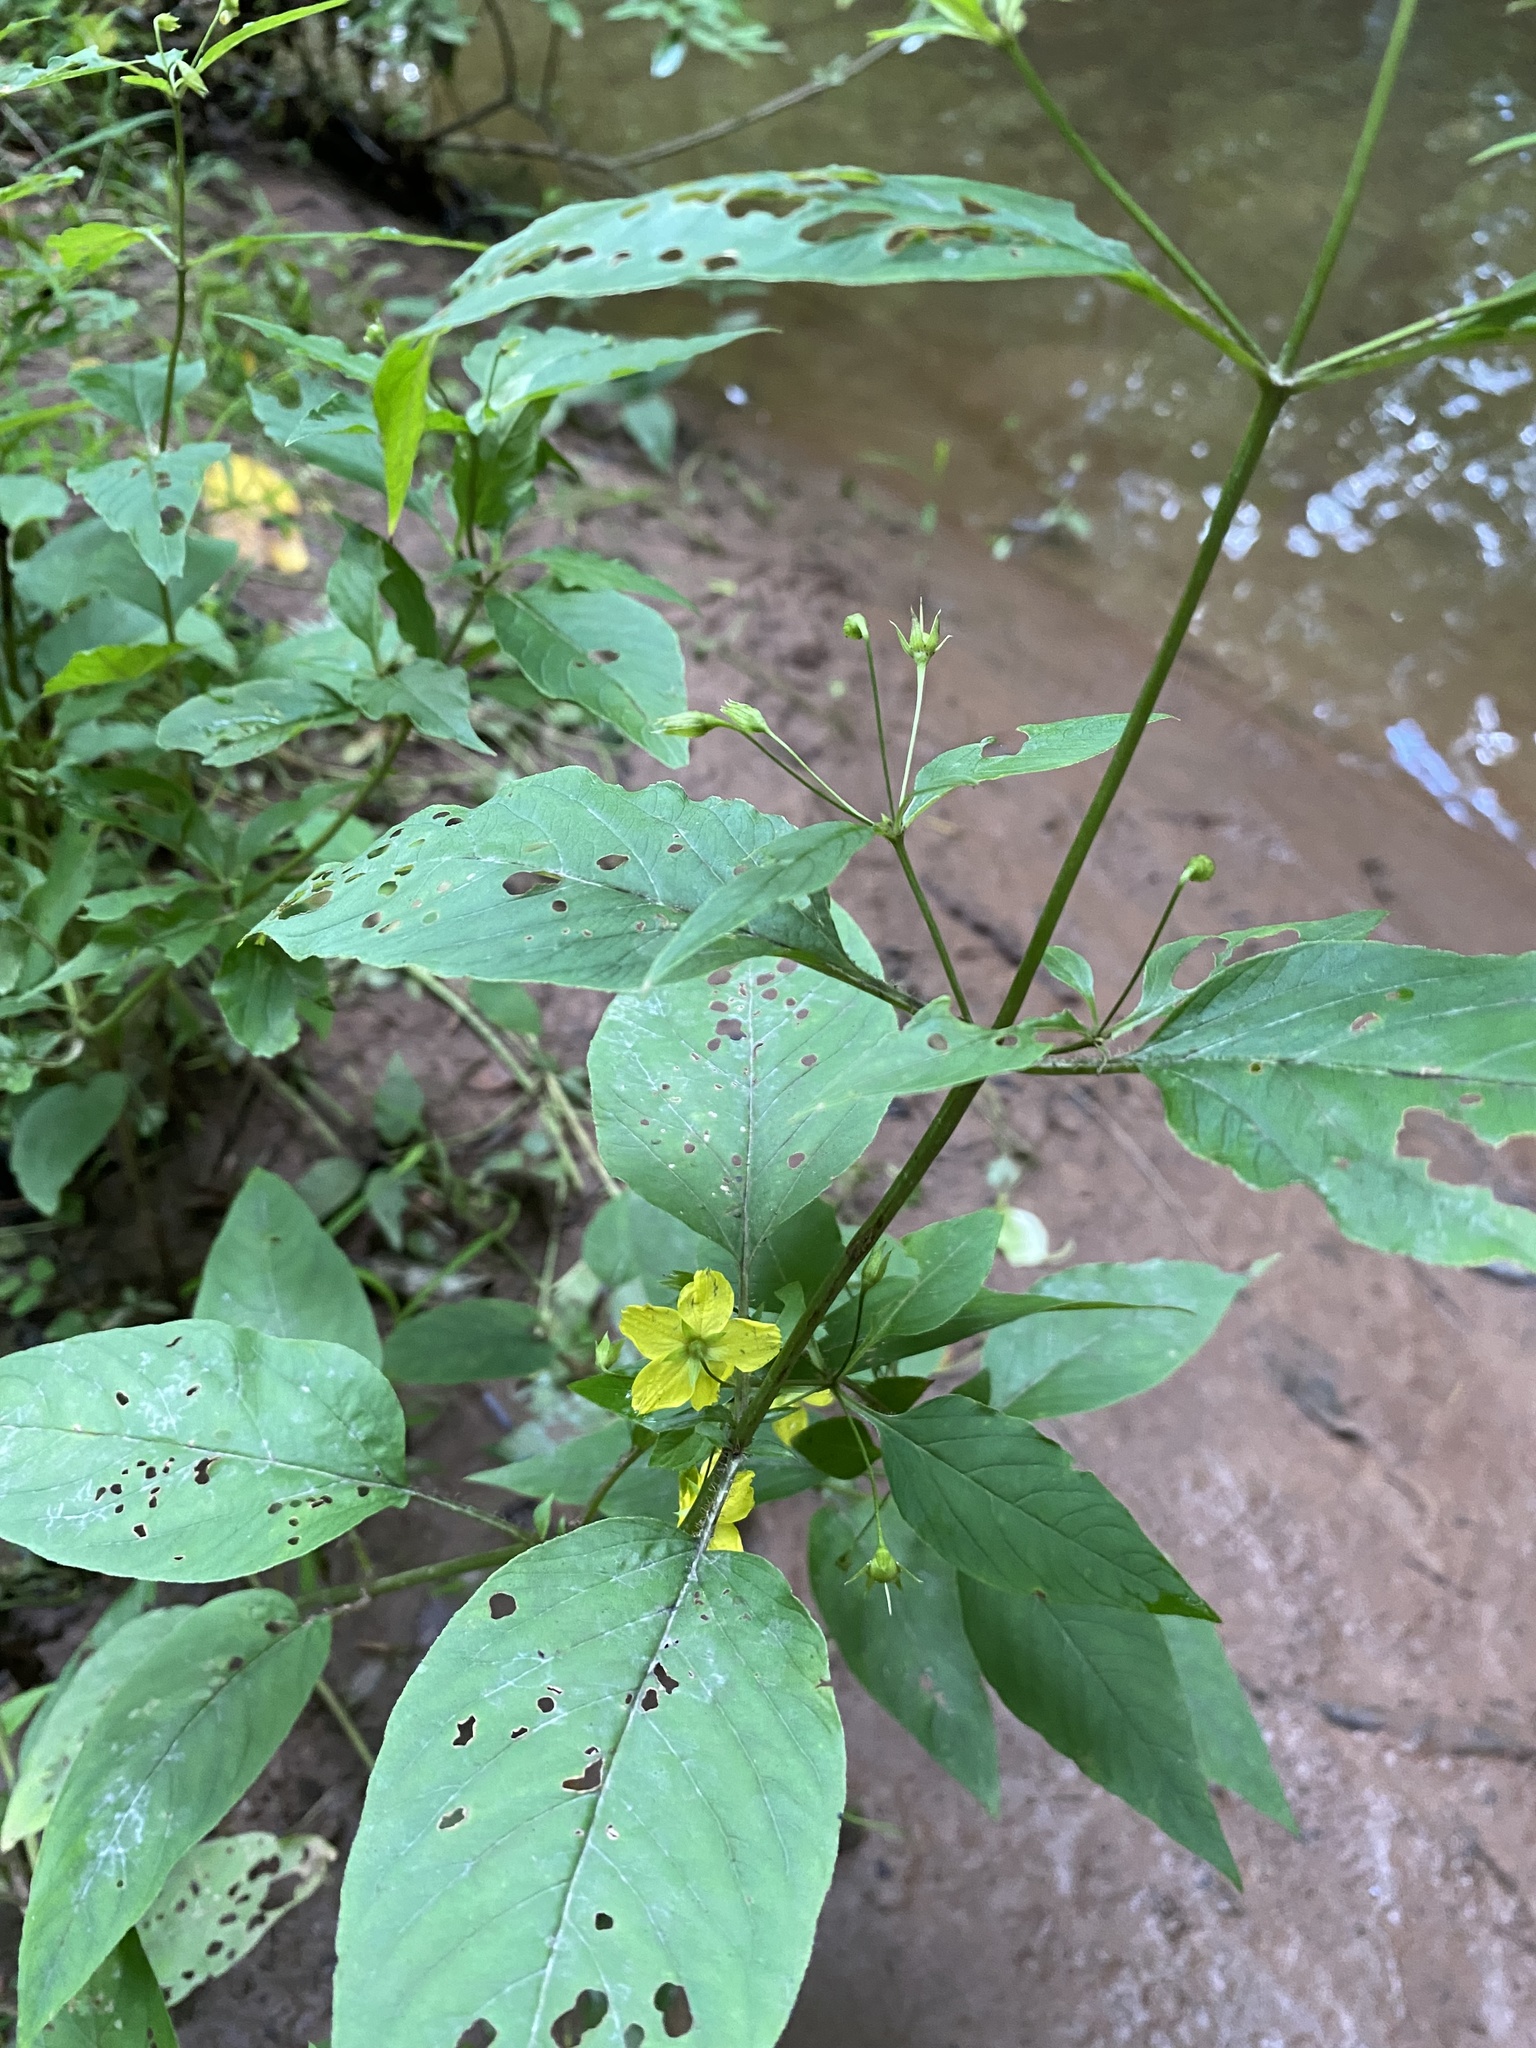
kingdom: Plantae
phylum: Tracheophyta
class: Magnoliopsida
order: Ericales
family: Primulaceae
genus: Lysimachia
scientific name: Lysimachia ciliata
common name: Fringed loosestrife
